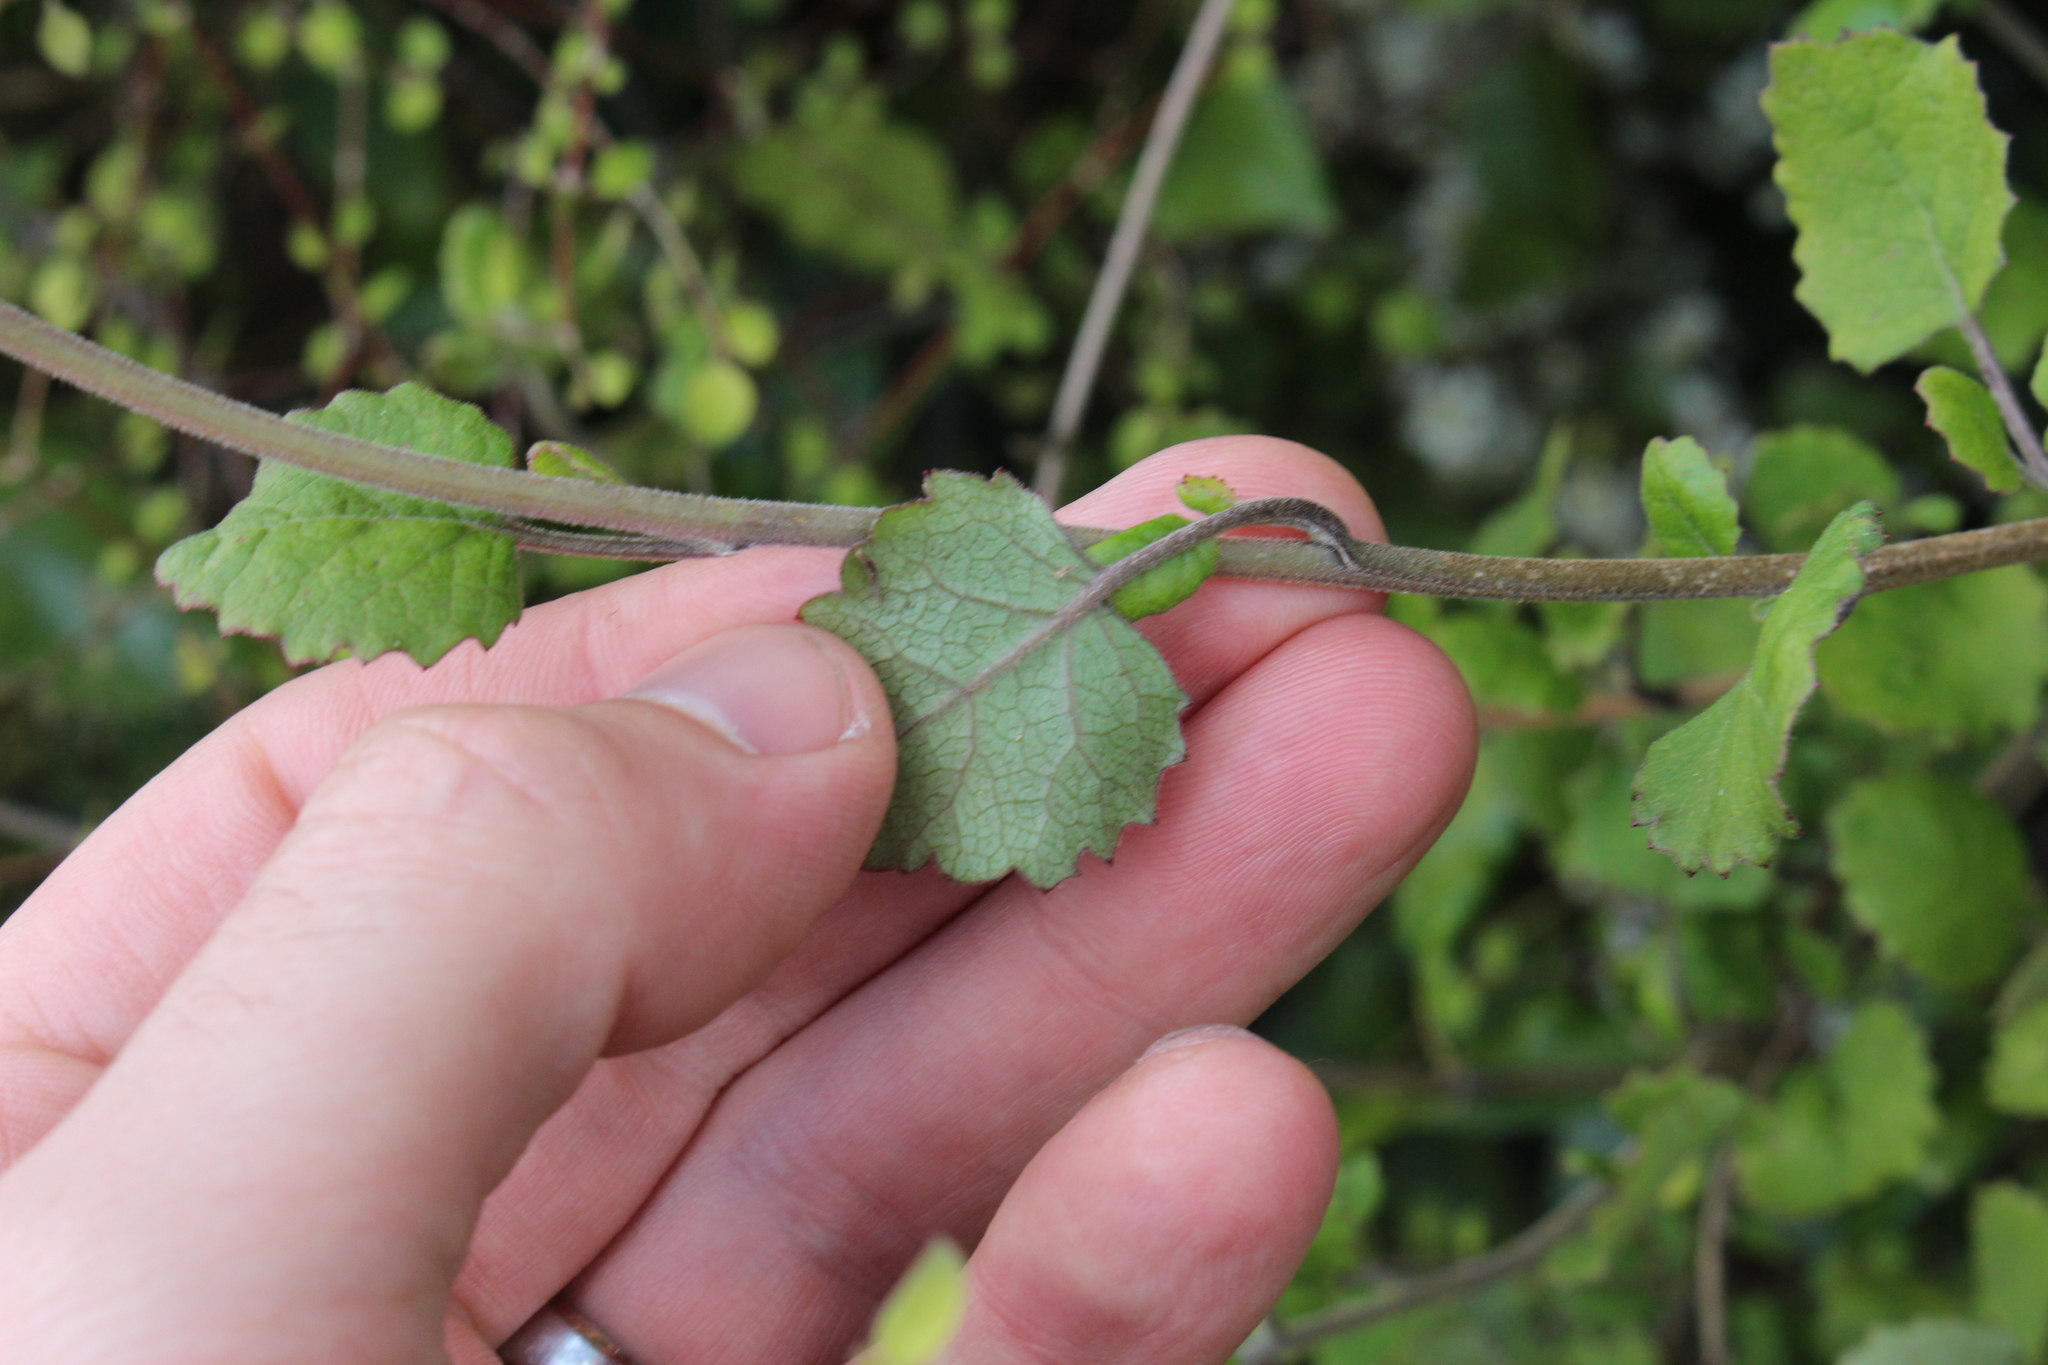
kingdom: Plantae
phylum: Tracheophyta
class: Magnoliopsida
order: Asterales
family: Asteraceae
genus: Brachyglottis
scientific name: Brachyglottis sciadophila
